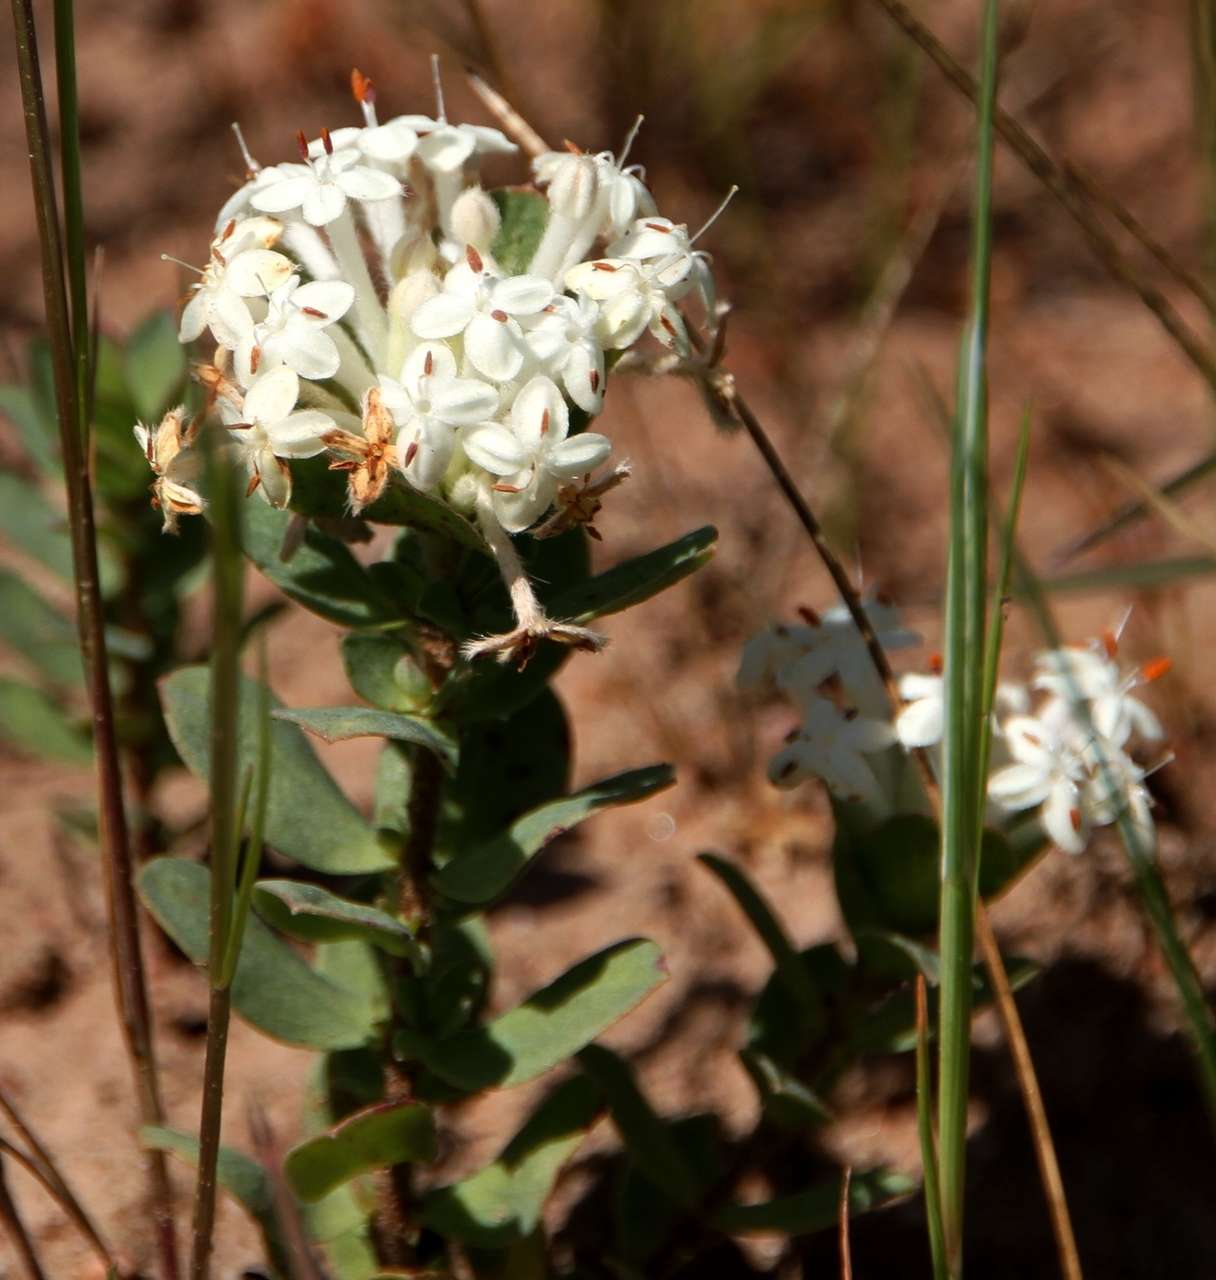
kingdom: Plantae
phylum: Tracheophyta
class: Magnoliopsida
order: Malvales
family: Thymelaeaceae
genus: Pimelea
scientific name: Pimelea humilis
